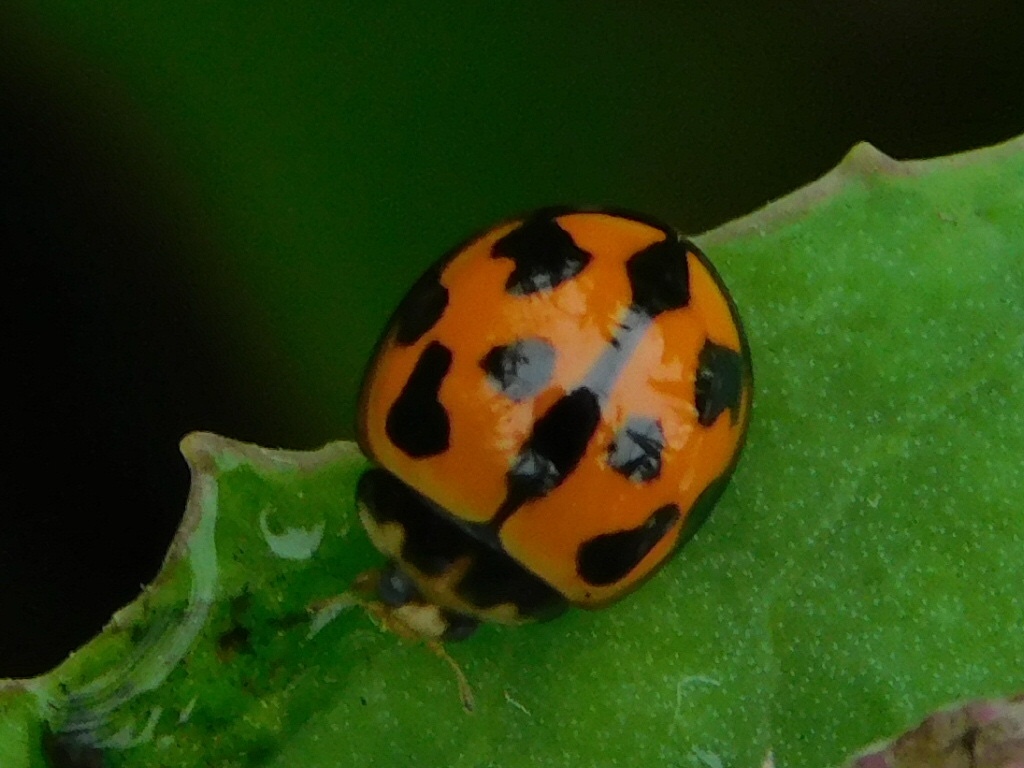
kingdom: Animalia
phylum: Arthropoda
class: Insecta
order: Coleoptera
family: Coccinellidae
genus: Coelophora
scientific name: Coelophora inaequalis
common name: Common australian lady beetle
